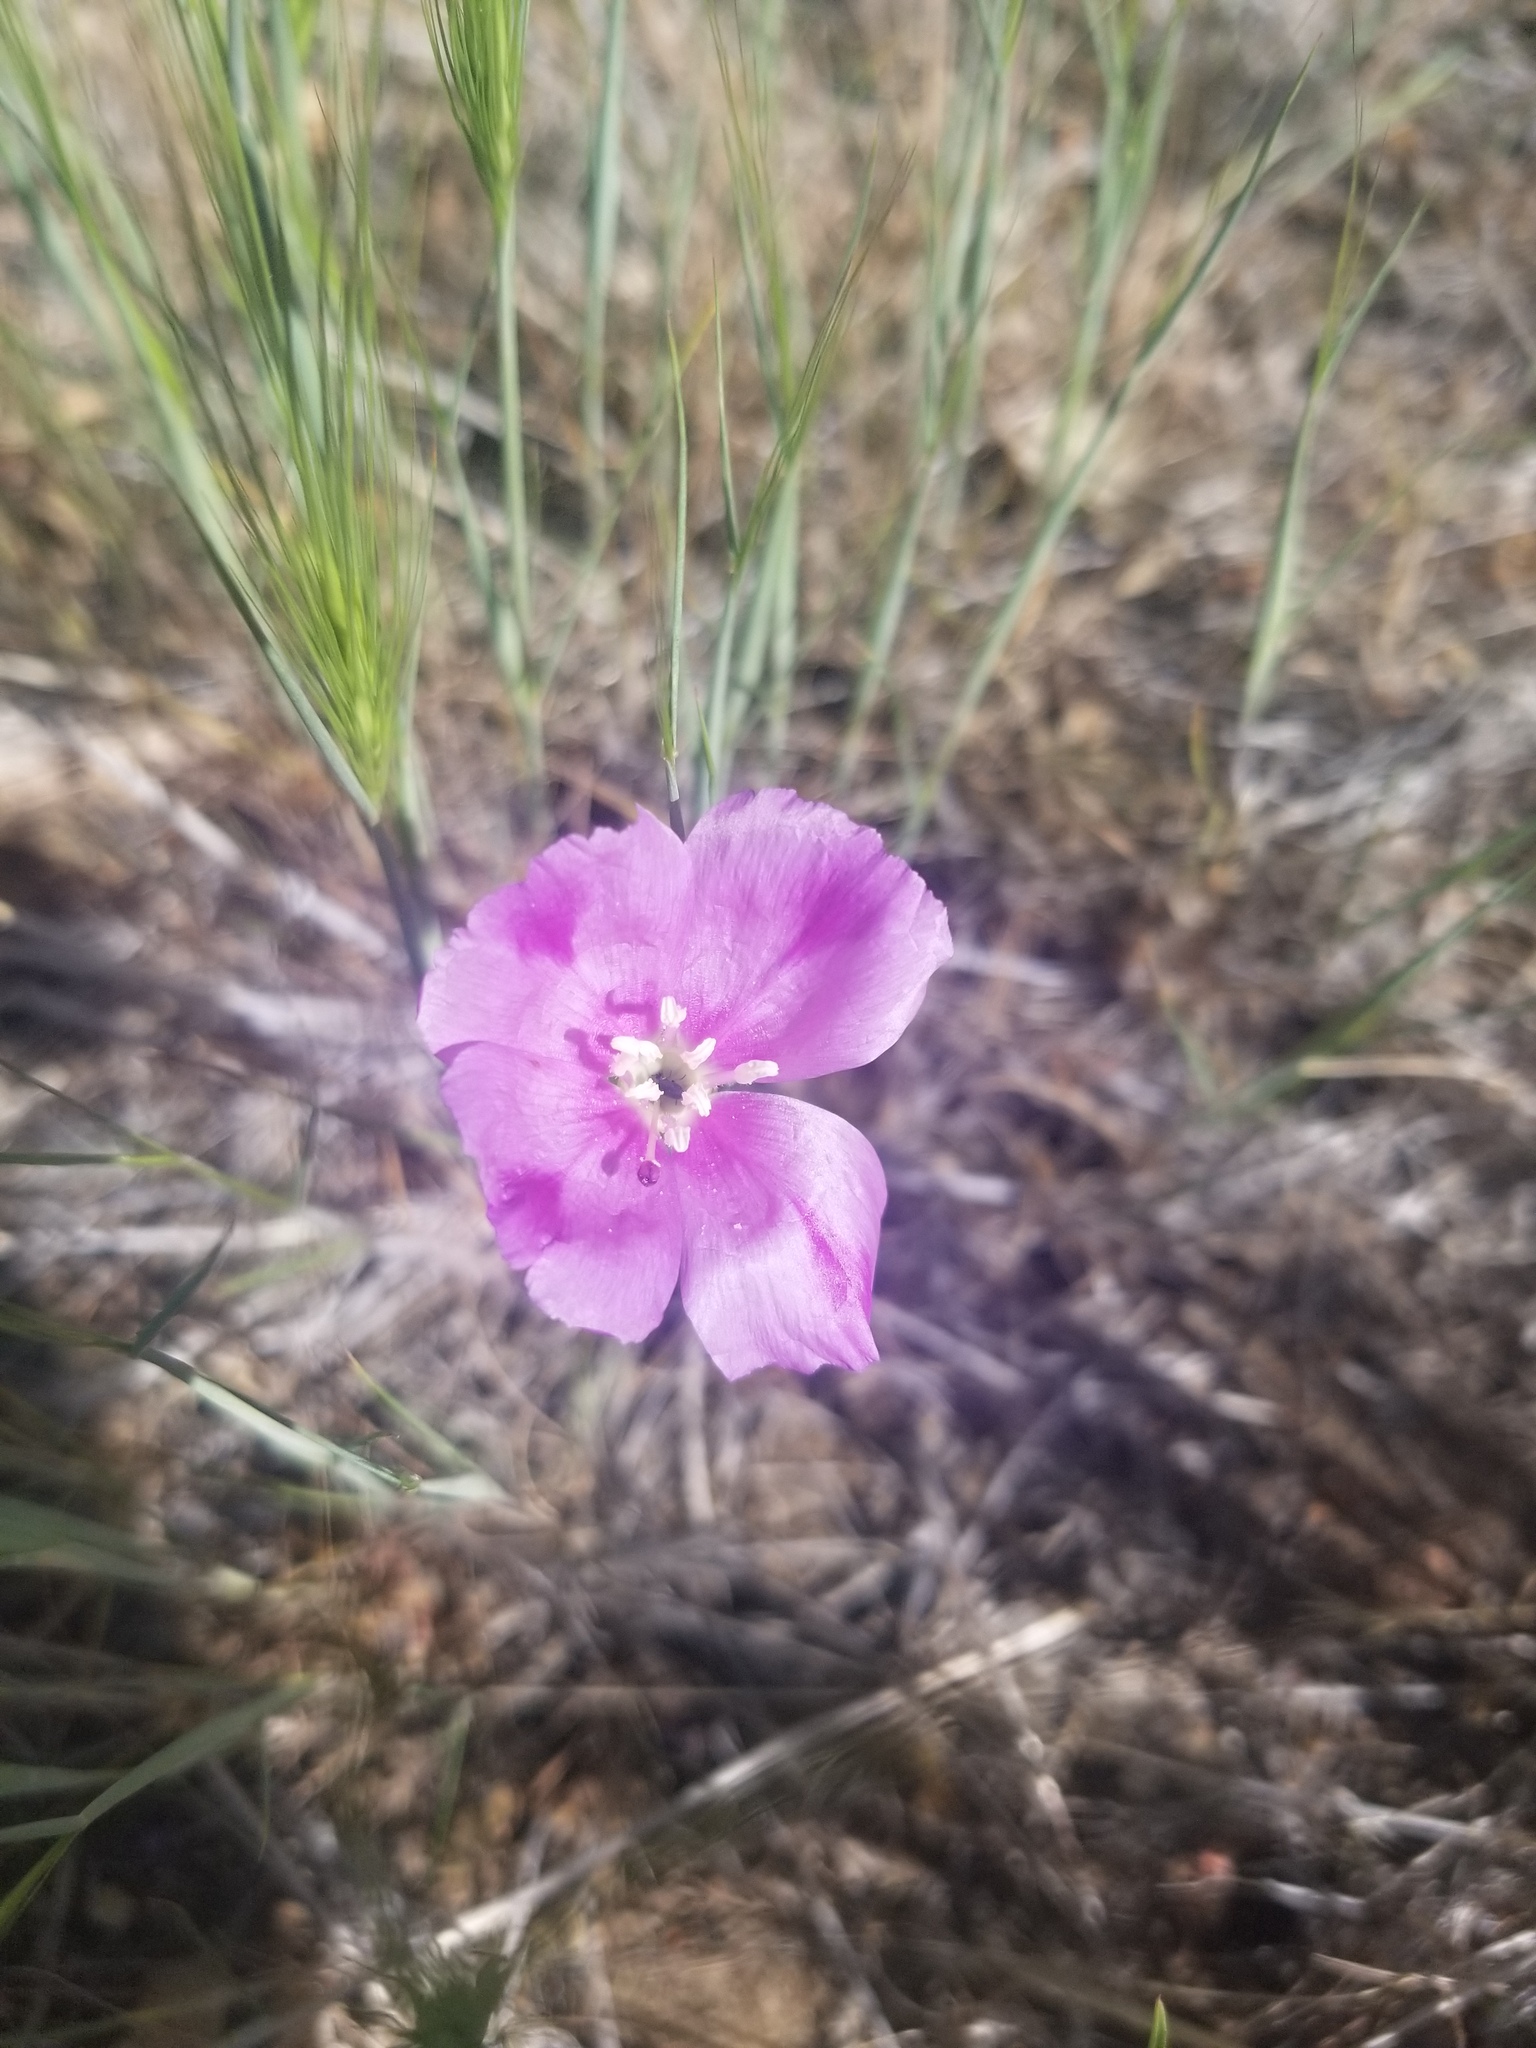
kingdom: Plantae
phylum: Tracheophyta
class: Magnoliopsida
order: Myrtales
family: Onagraceae
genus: Clarkia
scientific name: Clarkia purpurea
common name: Purple clarkia
